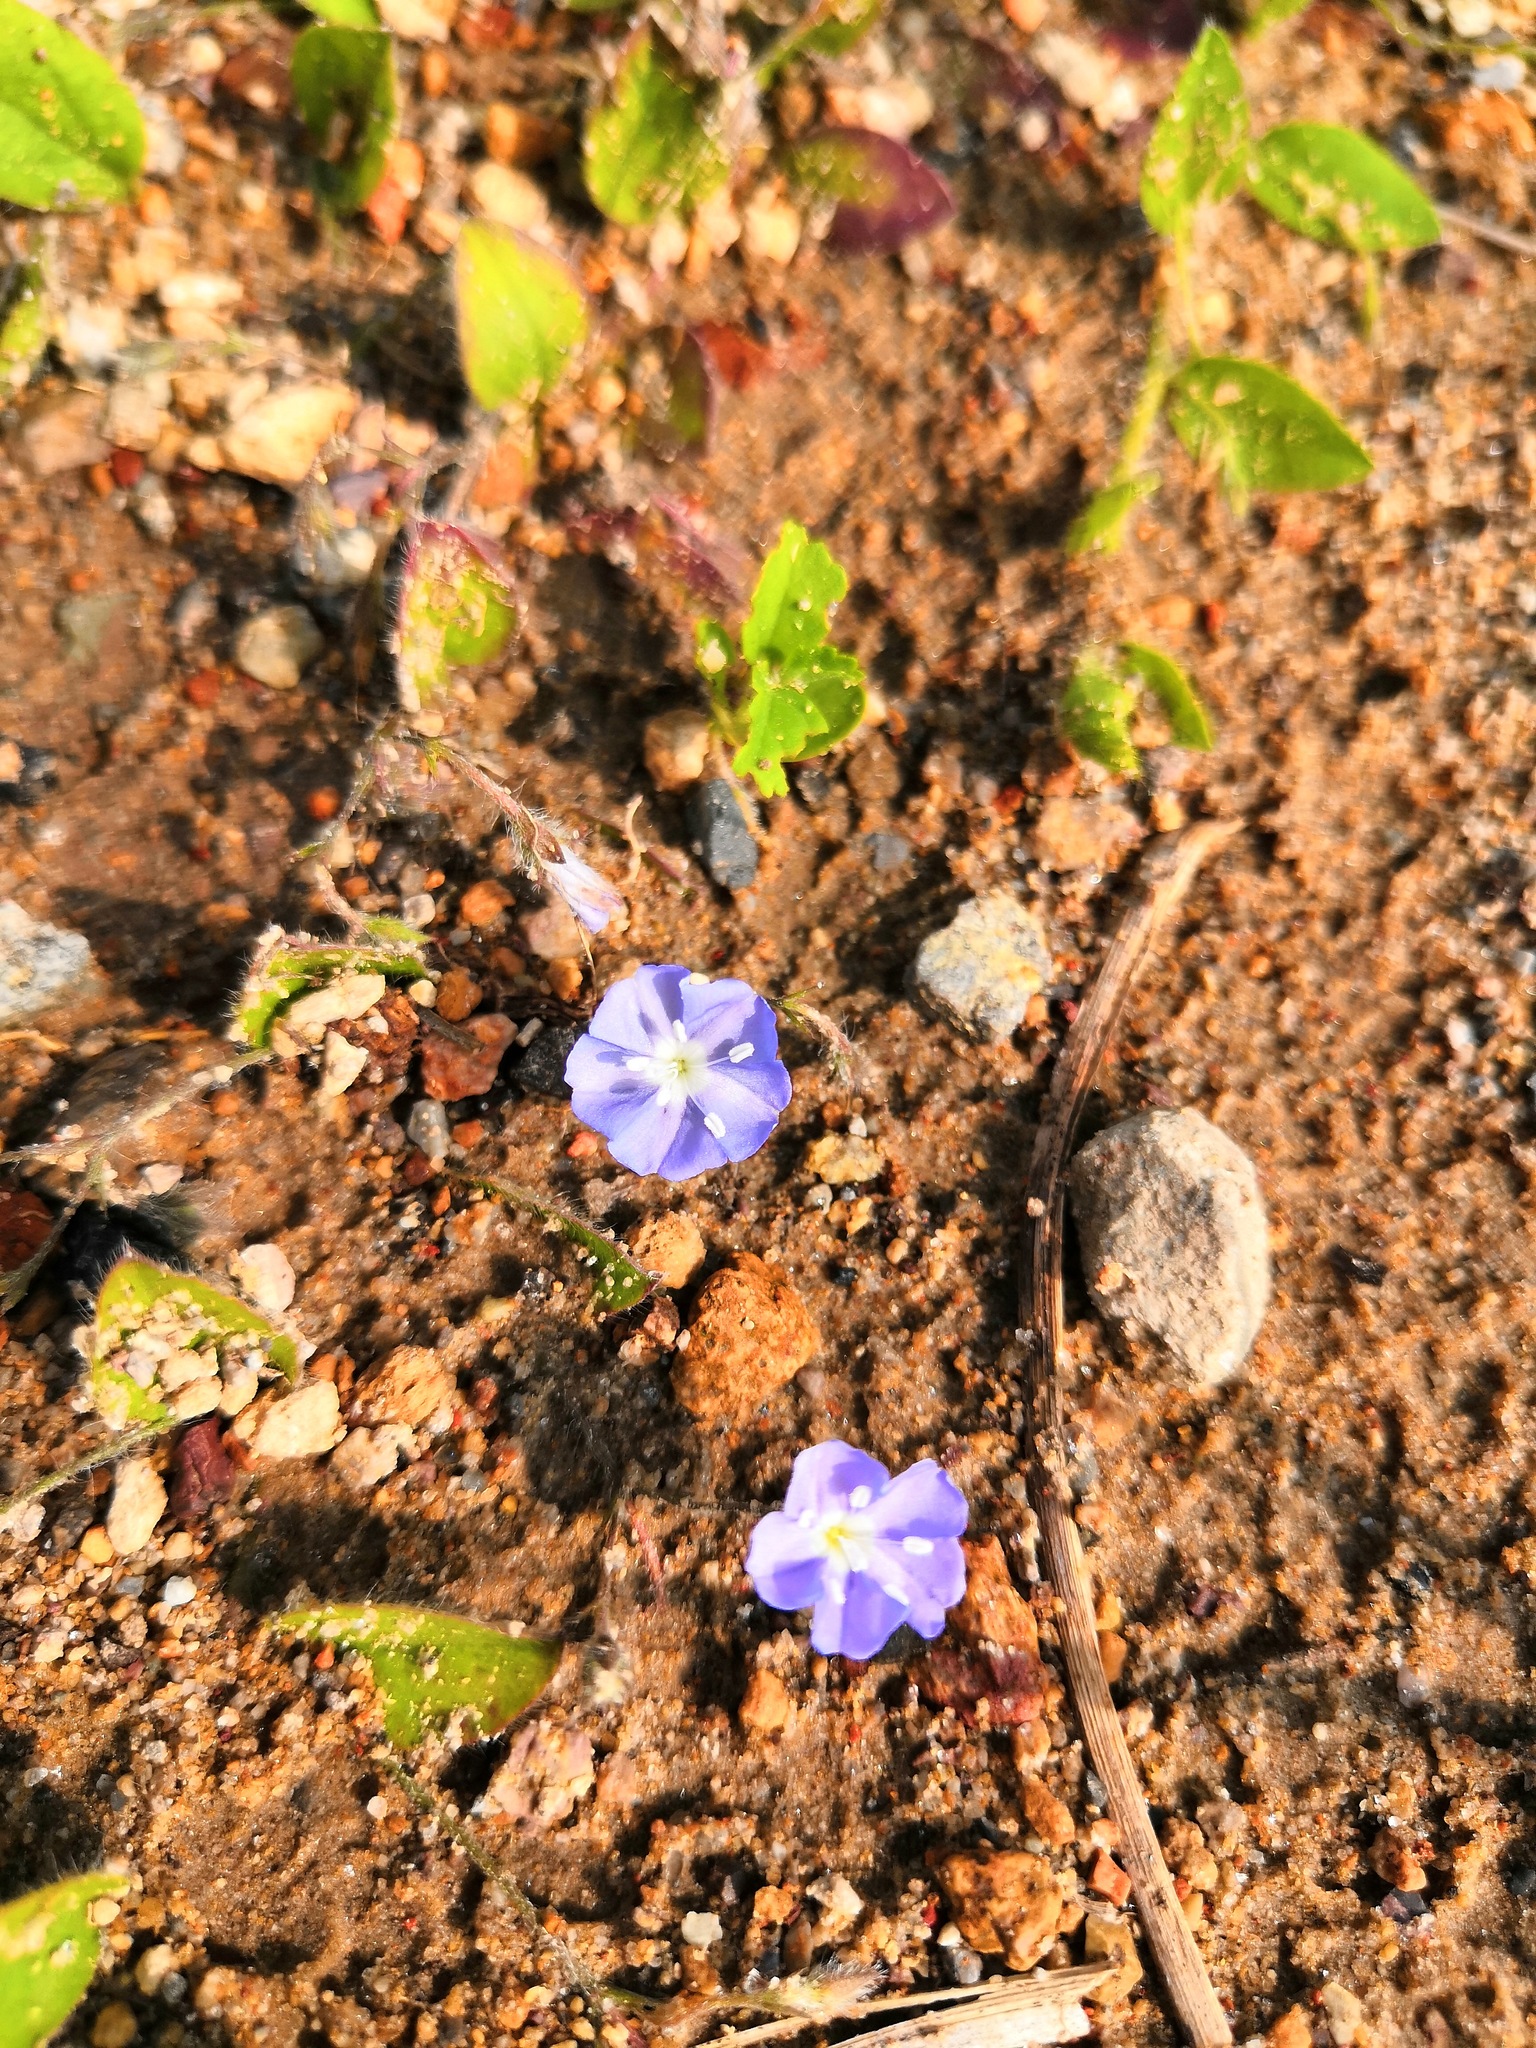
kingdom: Plantae
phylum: Tracheophyta
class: Magnoliopsida
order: Solanales
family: Convolvulaceae
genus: Evolvulus
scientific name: Evolvulus alsinoides
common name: Slender dwarf morning-glory
